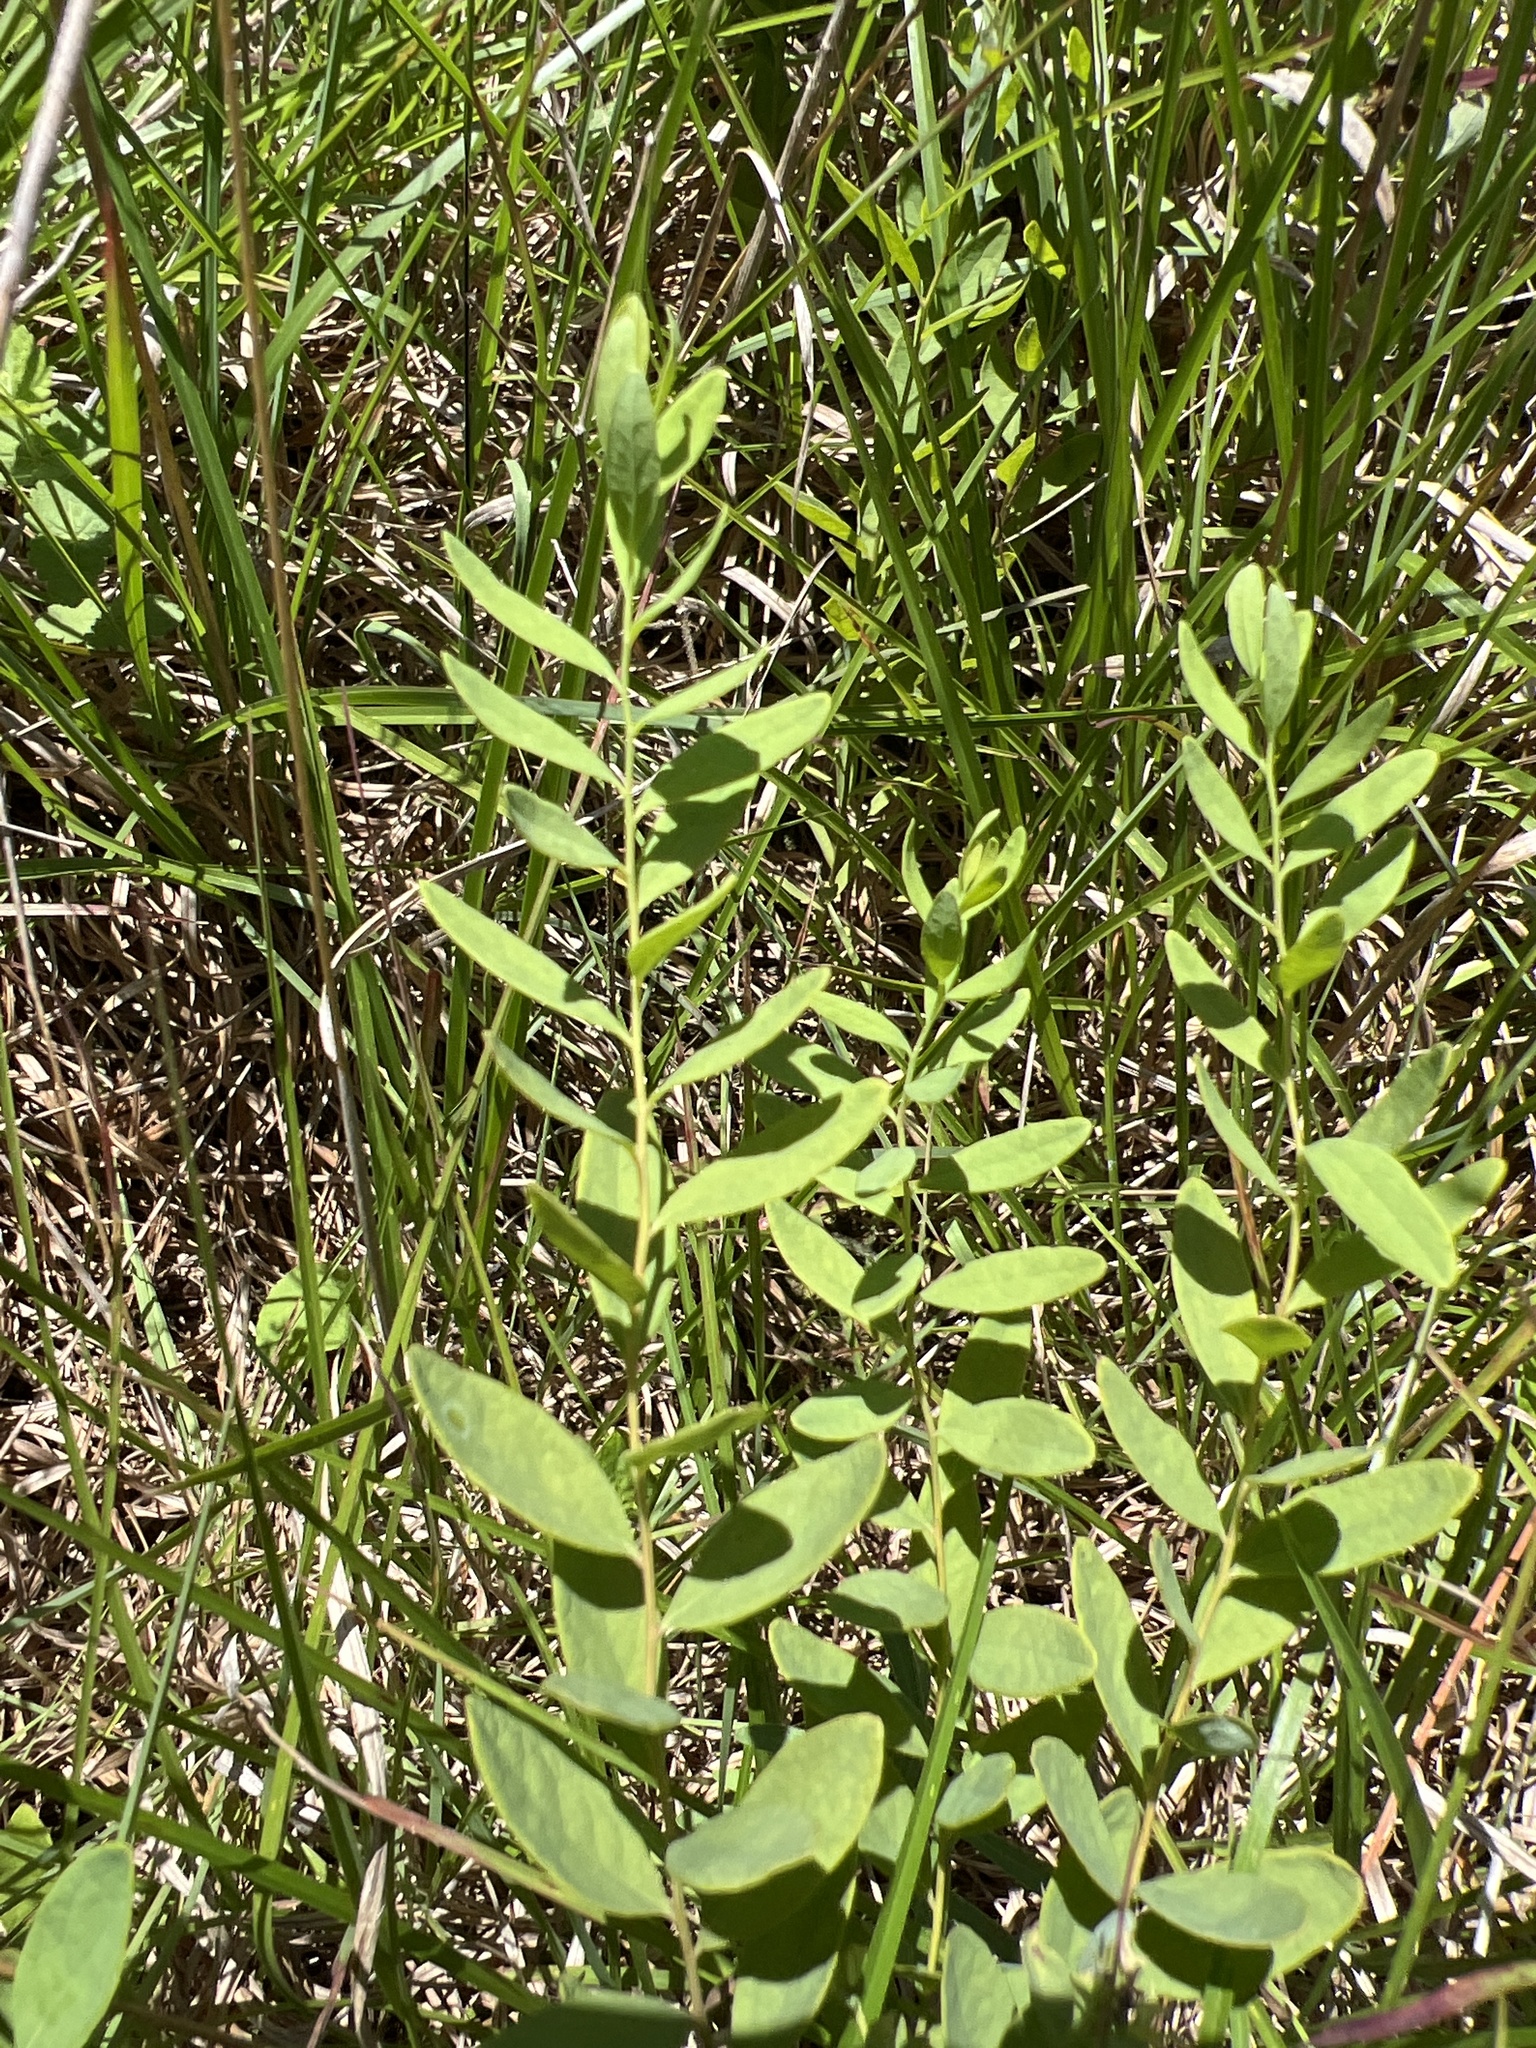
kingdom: Plantae
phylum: Tracheophyta
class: Magnoliopsida
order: Santalales
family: Comandraceae
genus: Comandra
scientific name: Comandra umbellata
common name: Bastard toadflax
